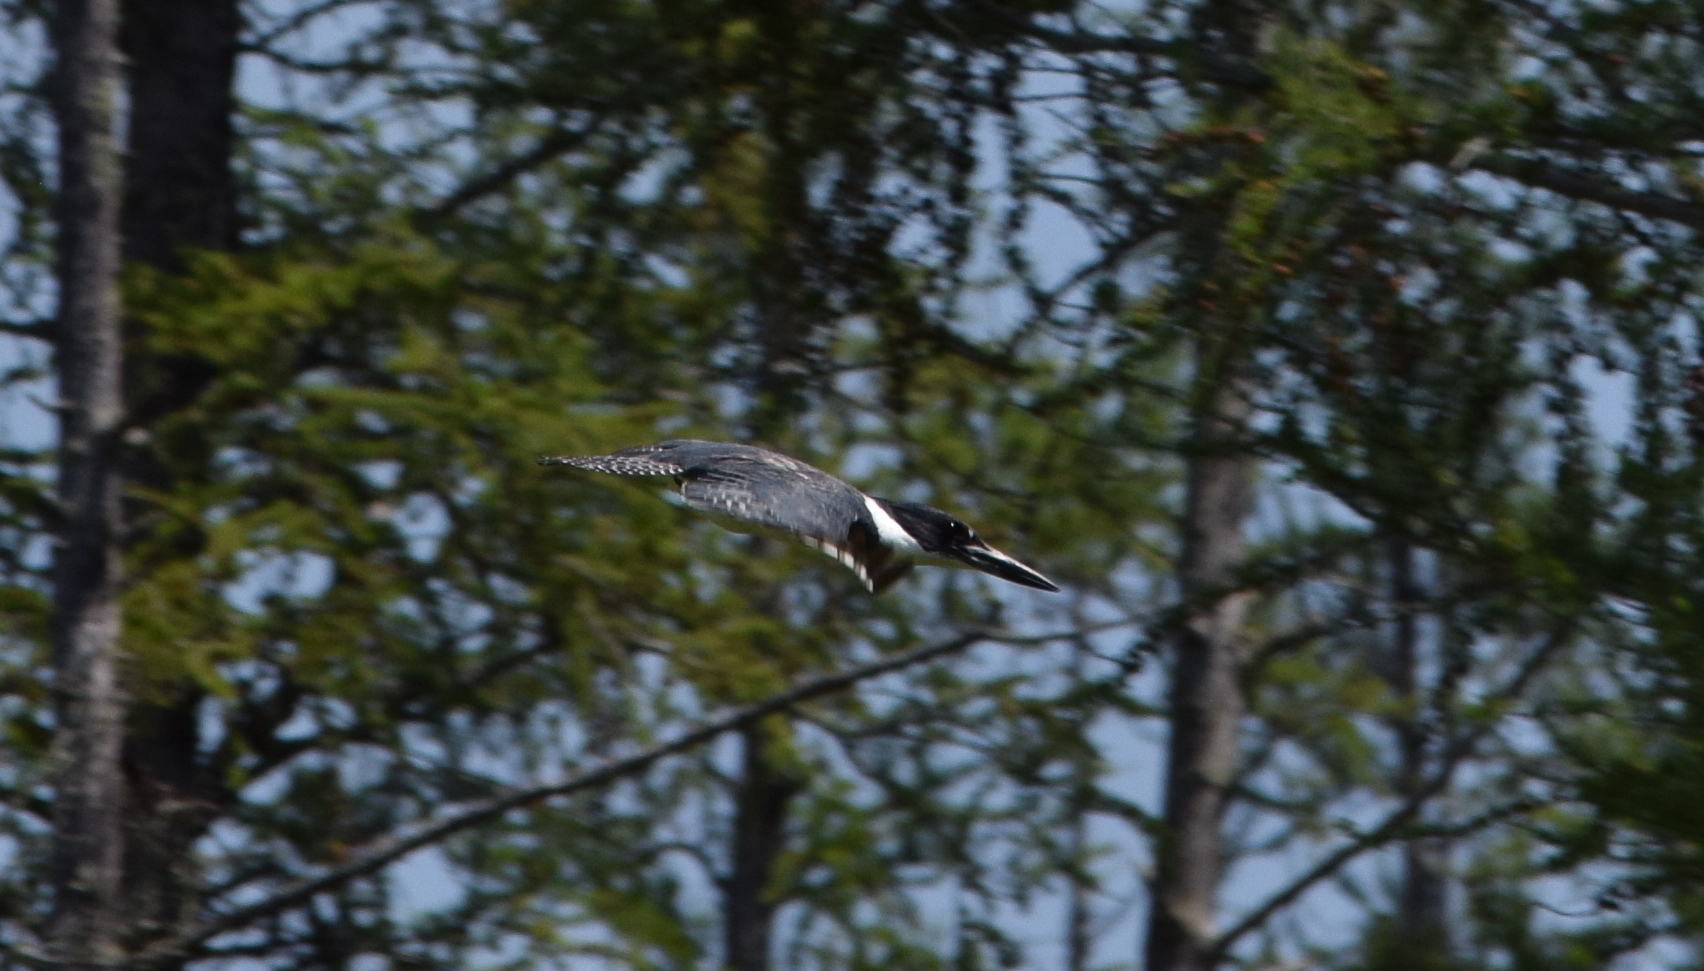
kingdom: Animalia
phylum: Chordata
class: Aves
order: Coraciiformes
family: Alcedinidae
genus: Megaceryle
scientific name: Megaceryle alcyon
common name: Belted kingfisher
